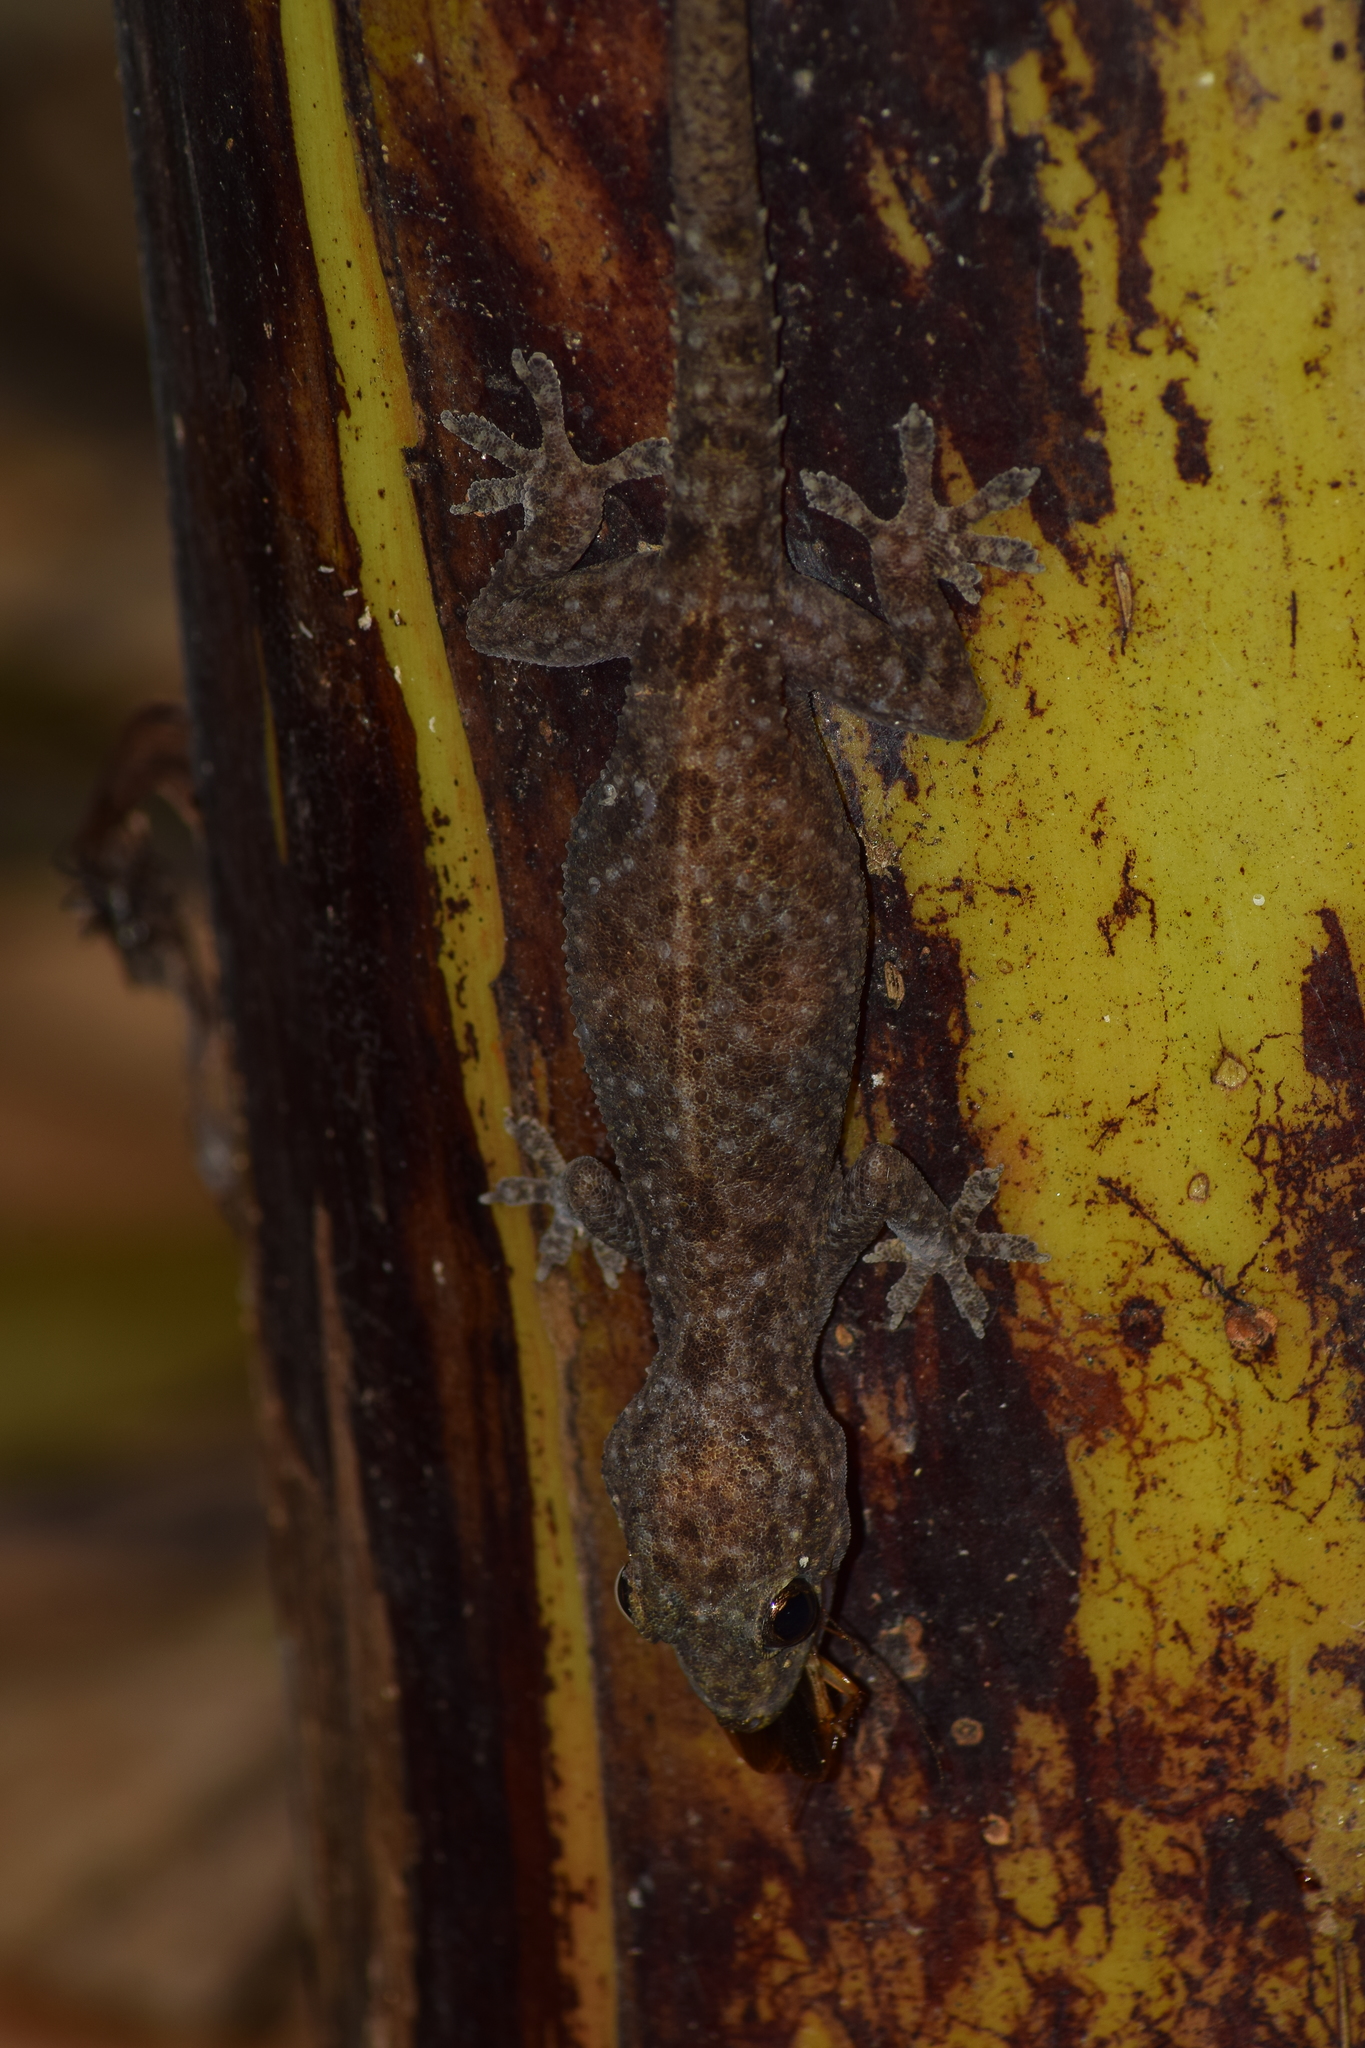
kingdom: Animalia
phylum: Chordata
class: Squamata
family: Gekkonidae
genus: Hemidactylus
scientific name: Hemidactylus parvimaculatus
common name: Spotted house gecko
